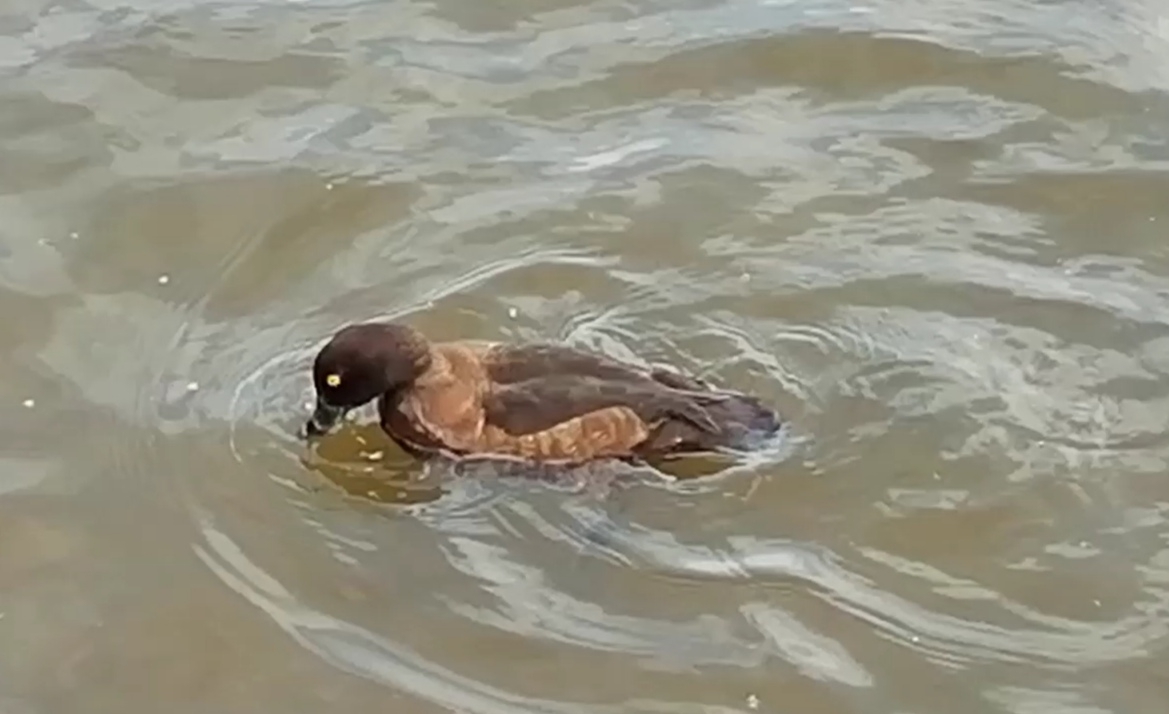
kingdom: Animalia
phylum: Chordata
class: Aves
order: Anseriformes
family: Anatidae
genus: Aythya
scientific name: Aythya fuligula
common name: Tufted duck
